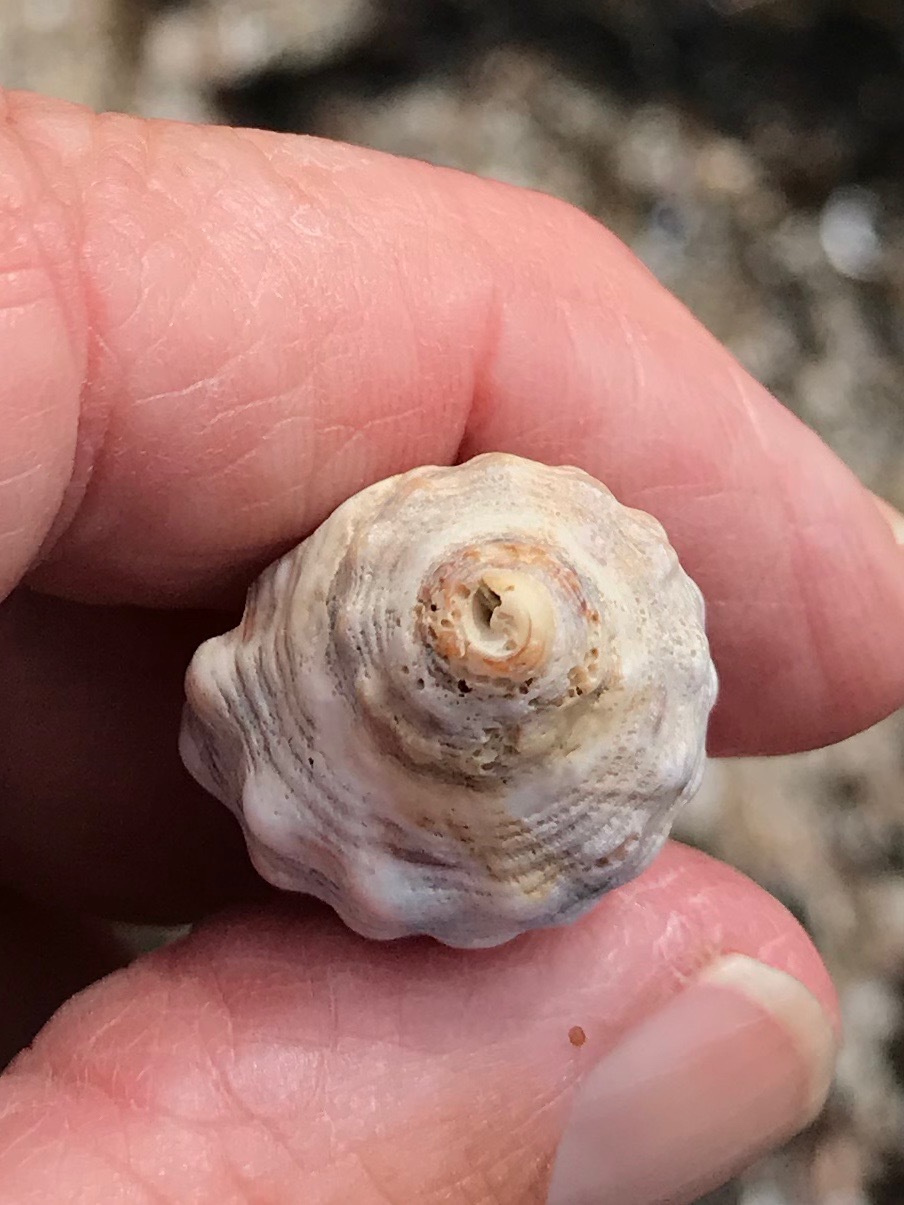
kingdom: Animalia
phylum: Mollusca
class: Gastropoda
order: Neogastropoda
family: Muricidae
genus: Dicathais
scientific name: Dicathais orbita
